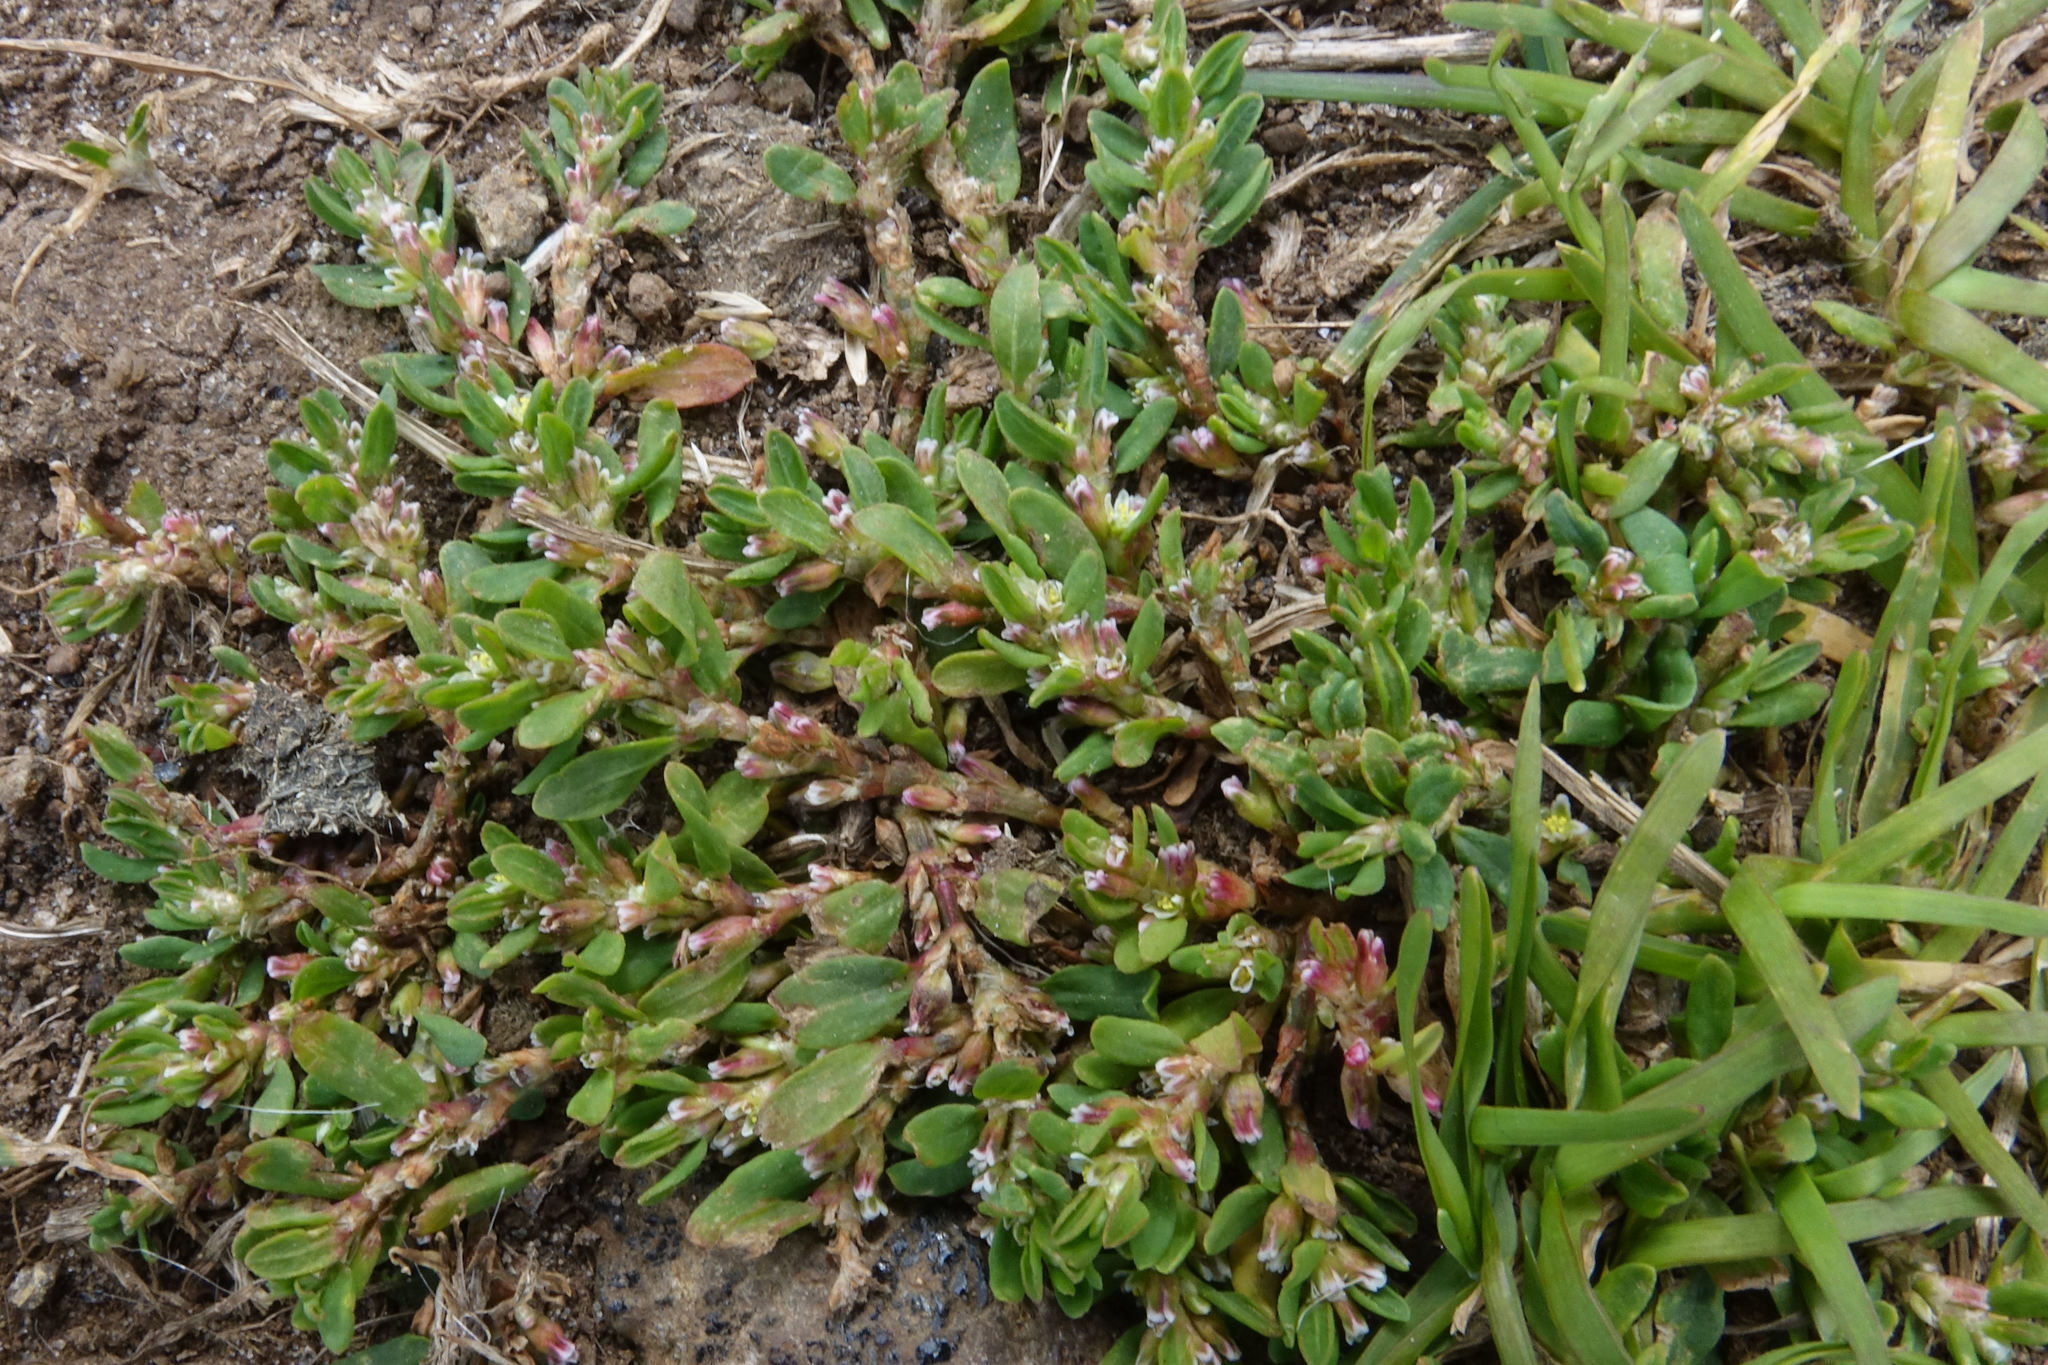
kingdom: Plantae
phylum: Tracheophyta
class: Magnoliopsida
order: Caryophyllales
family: Polygonaceae
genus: Polygonum
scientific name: Polygonum arenastrum
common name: Equal-leaved knotgrass
